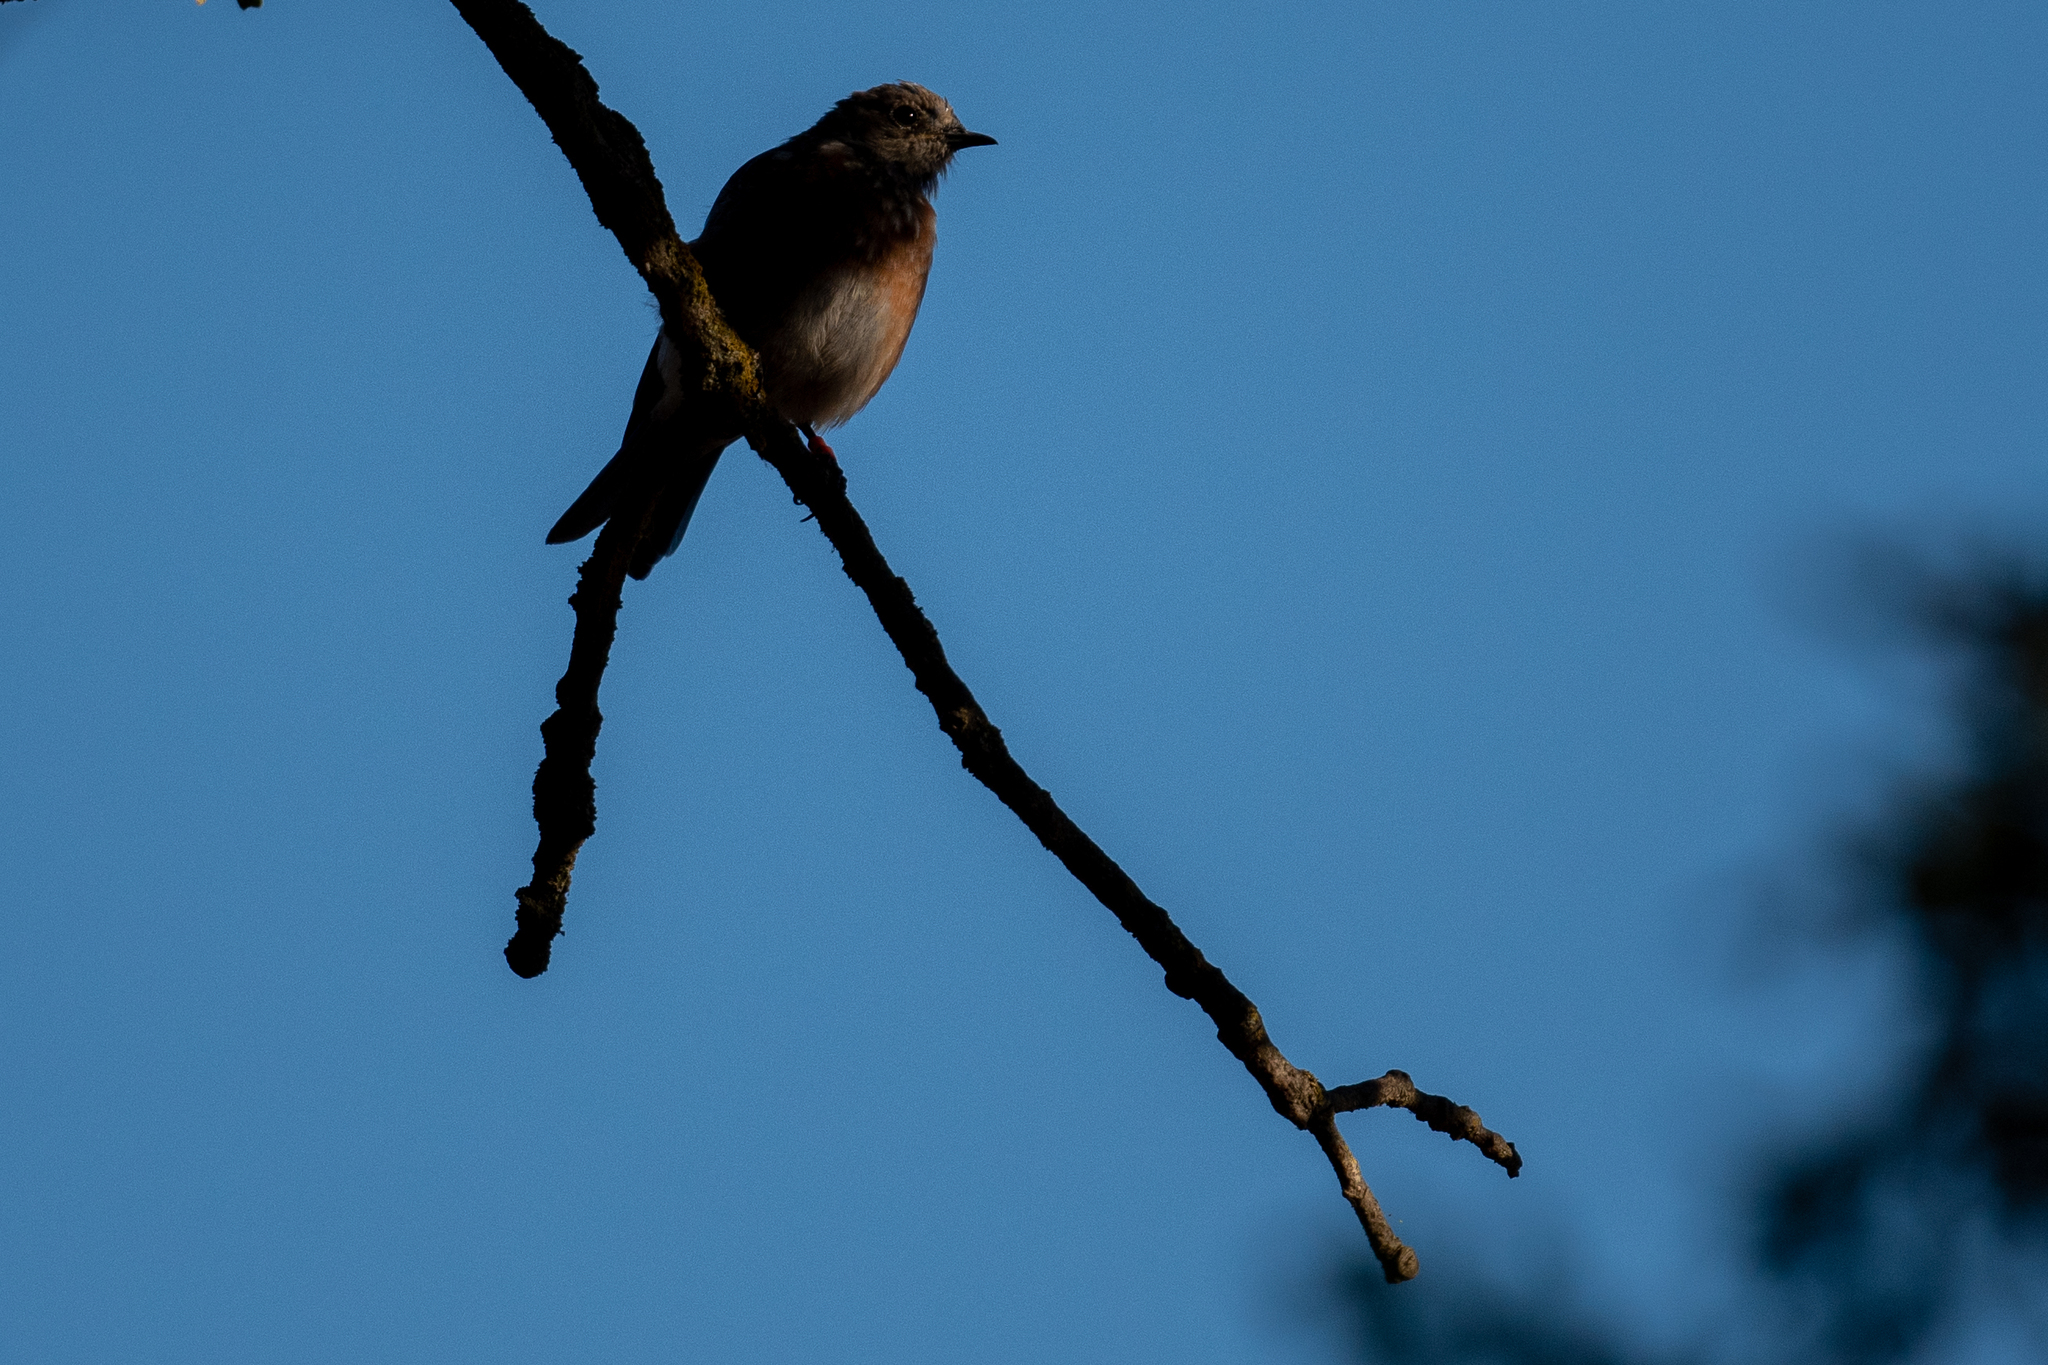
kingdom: Animalia
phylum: Chordata
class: Aves
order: Passeriformes
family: Turdidae
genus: Sialia
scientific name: Sialia mexicana
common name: Western bluebird
